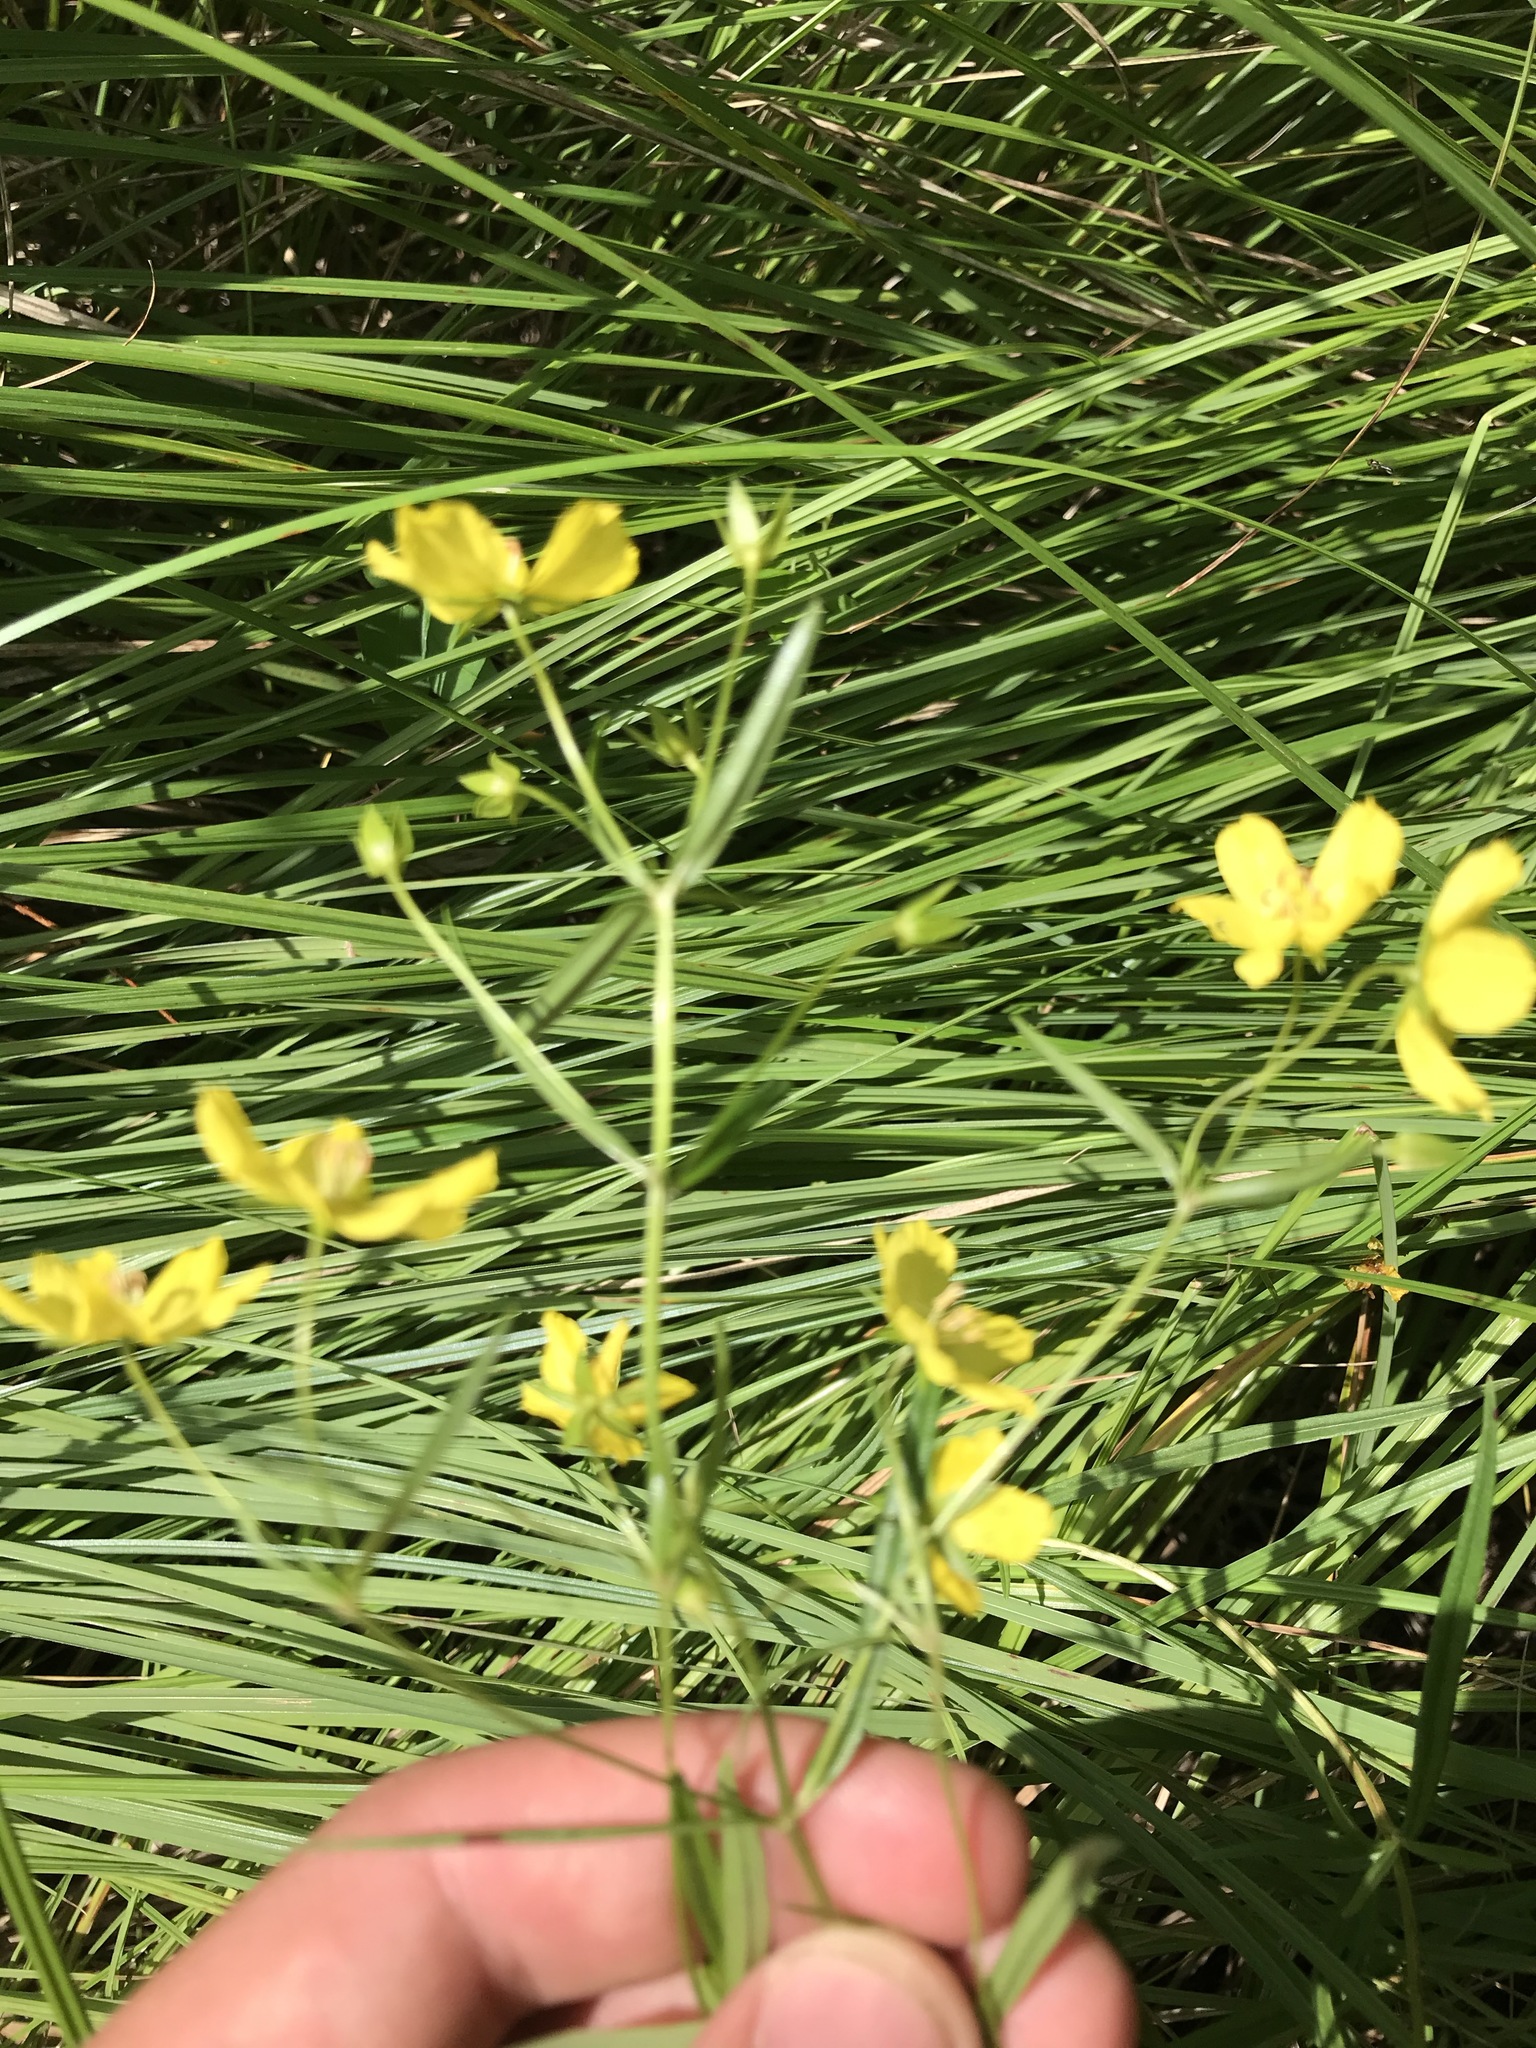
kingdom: Plantae
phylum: Tracheophyta
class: Magnoliopsida
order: Ericales
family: Primulaceae
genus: Lysimachia
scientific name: Lysimachia quadriflora
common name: Four-flowered loosestrife
